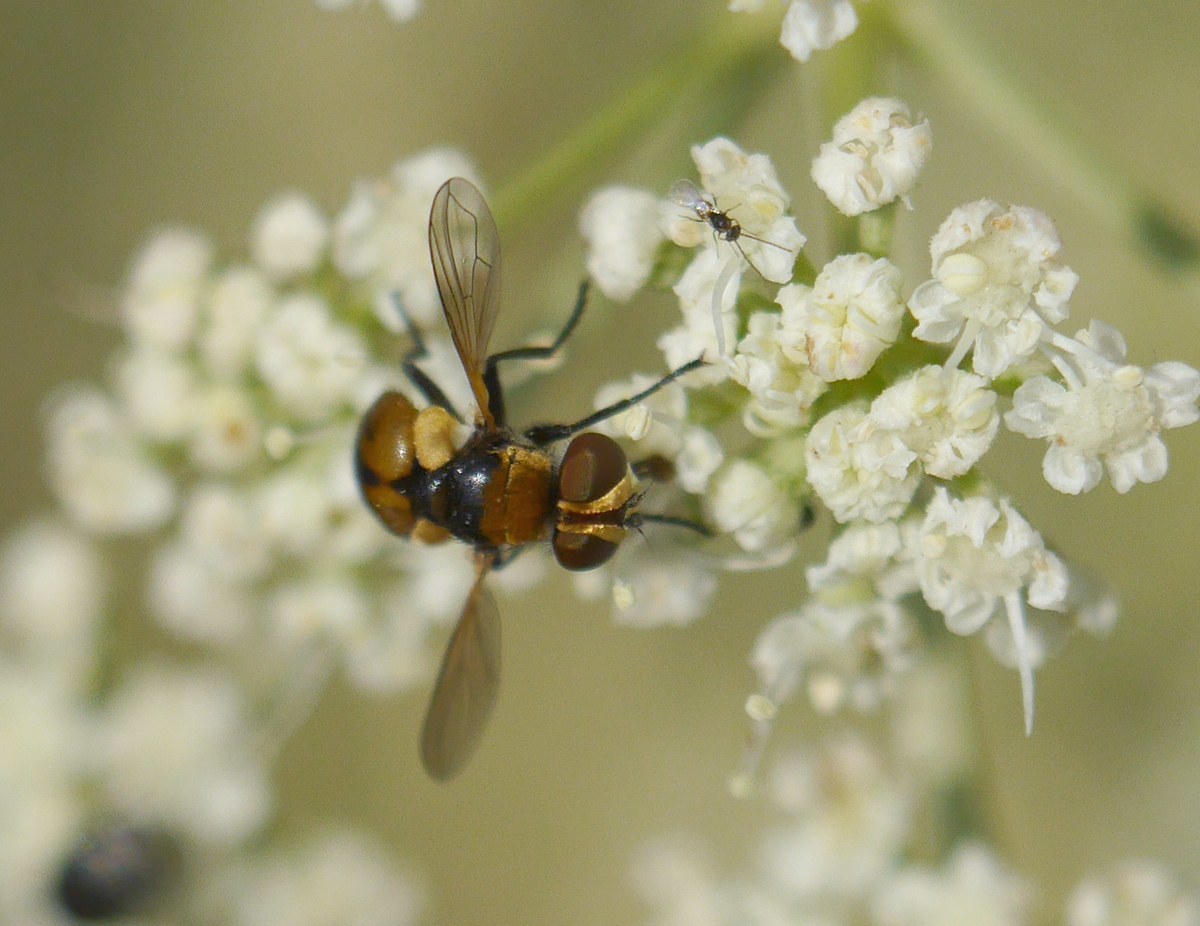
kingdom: Animalia
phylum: Arthropoda
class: Insecta
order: Diptera
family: Tachinidae
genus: Cistogaster
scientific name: Cistogaster globosa
